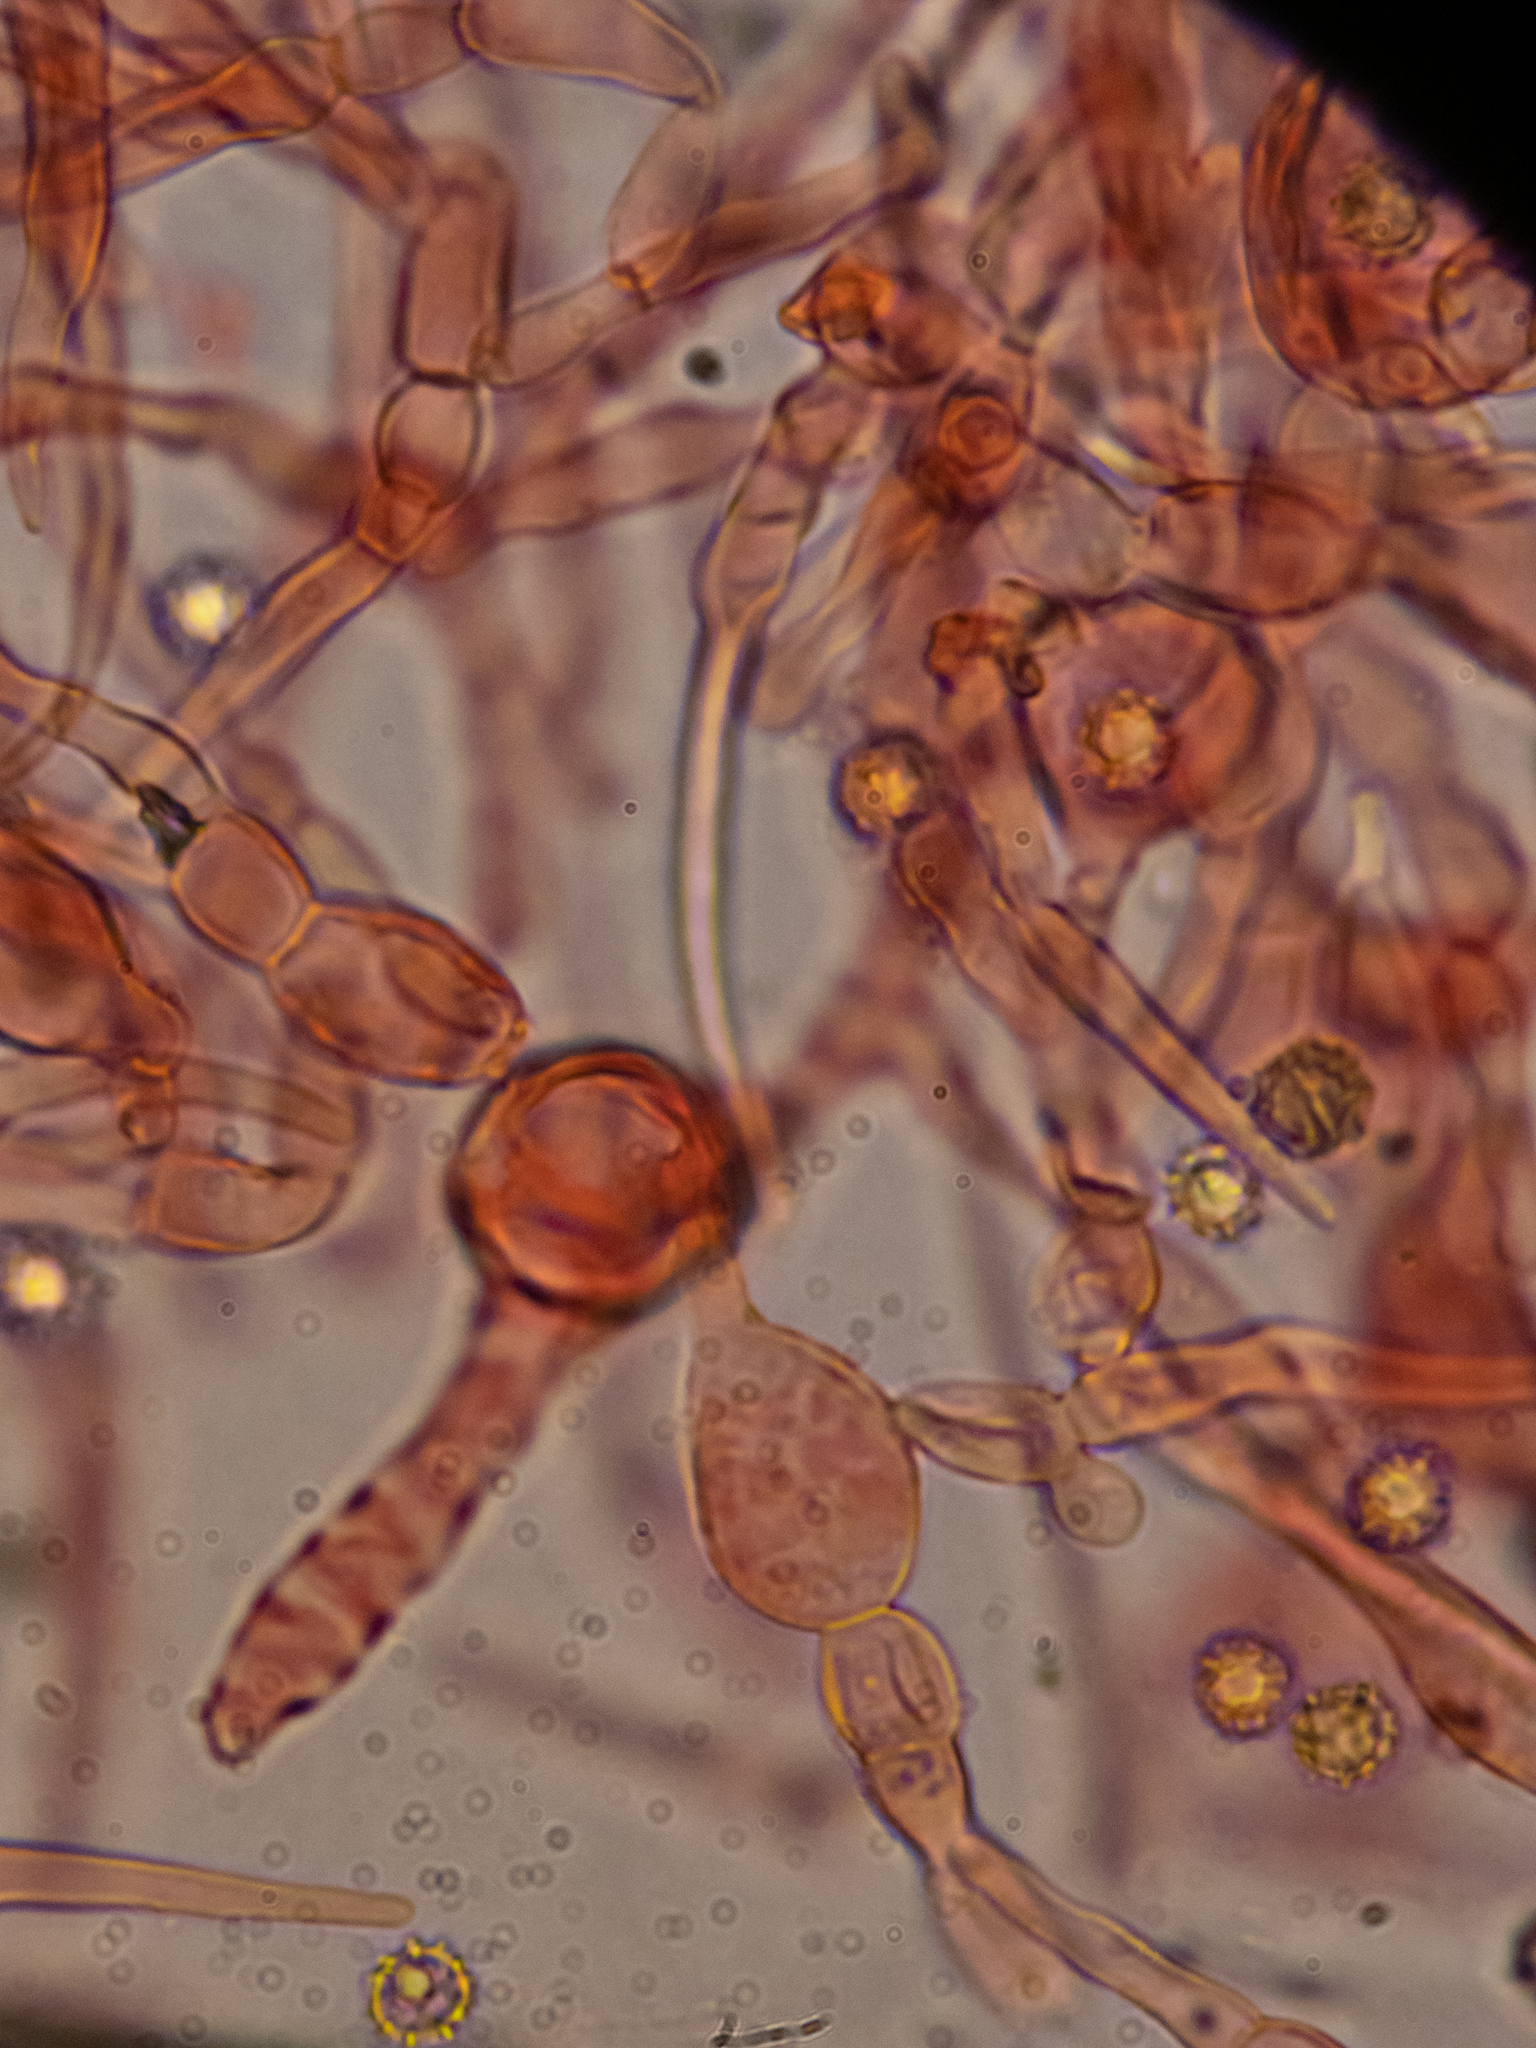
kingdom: Fungi
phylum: Basidiomycota
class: Agaricomycetes
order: Russulales
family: Russulaceae
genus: Russula
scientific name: Russula violeipes
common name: Velvet brittlegill
